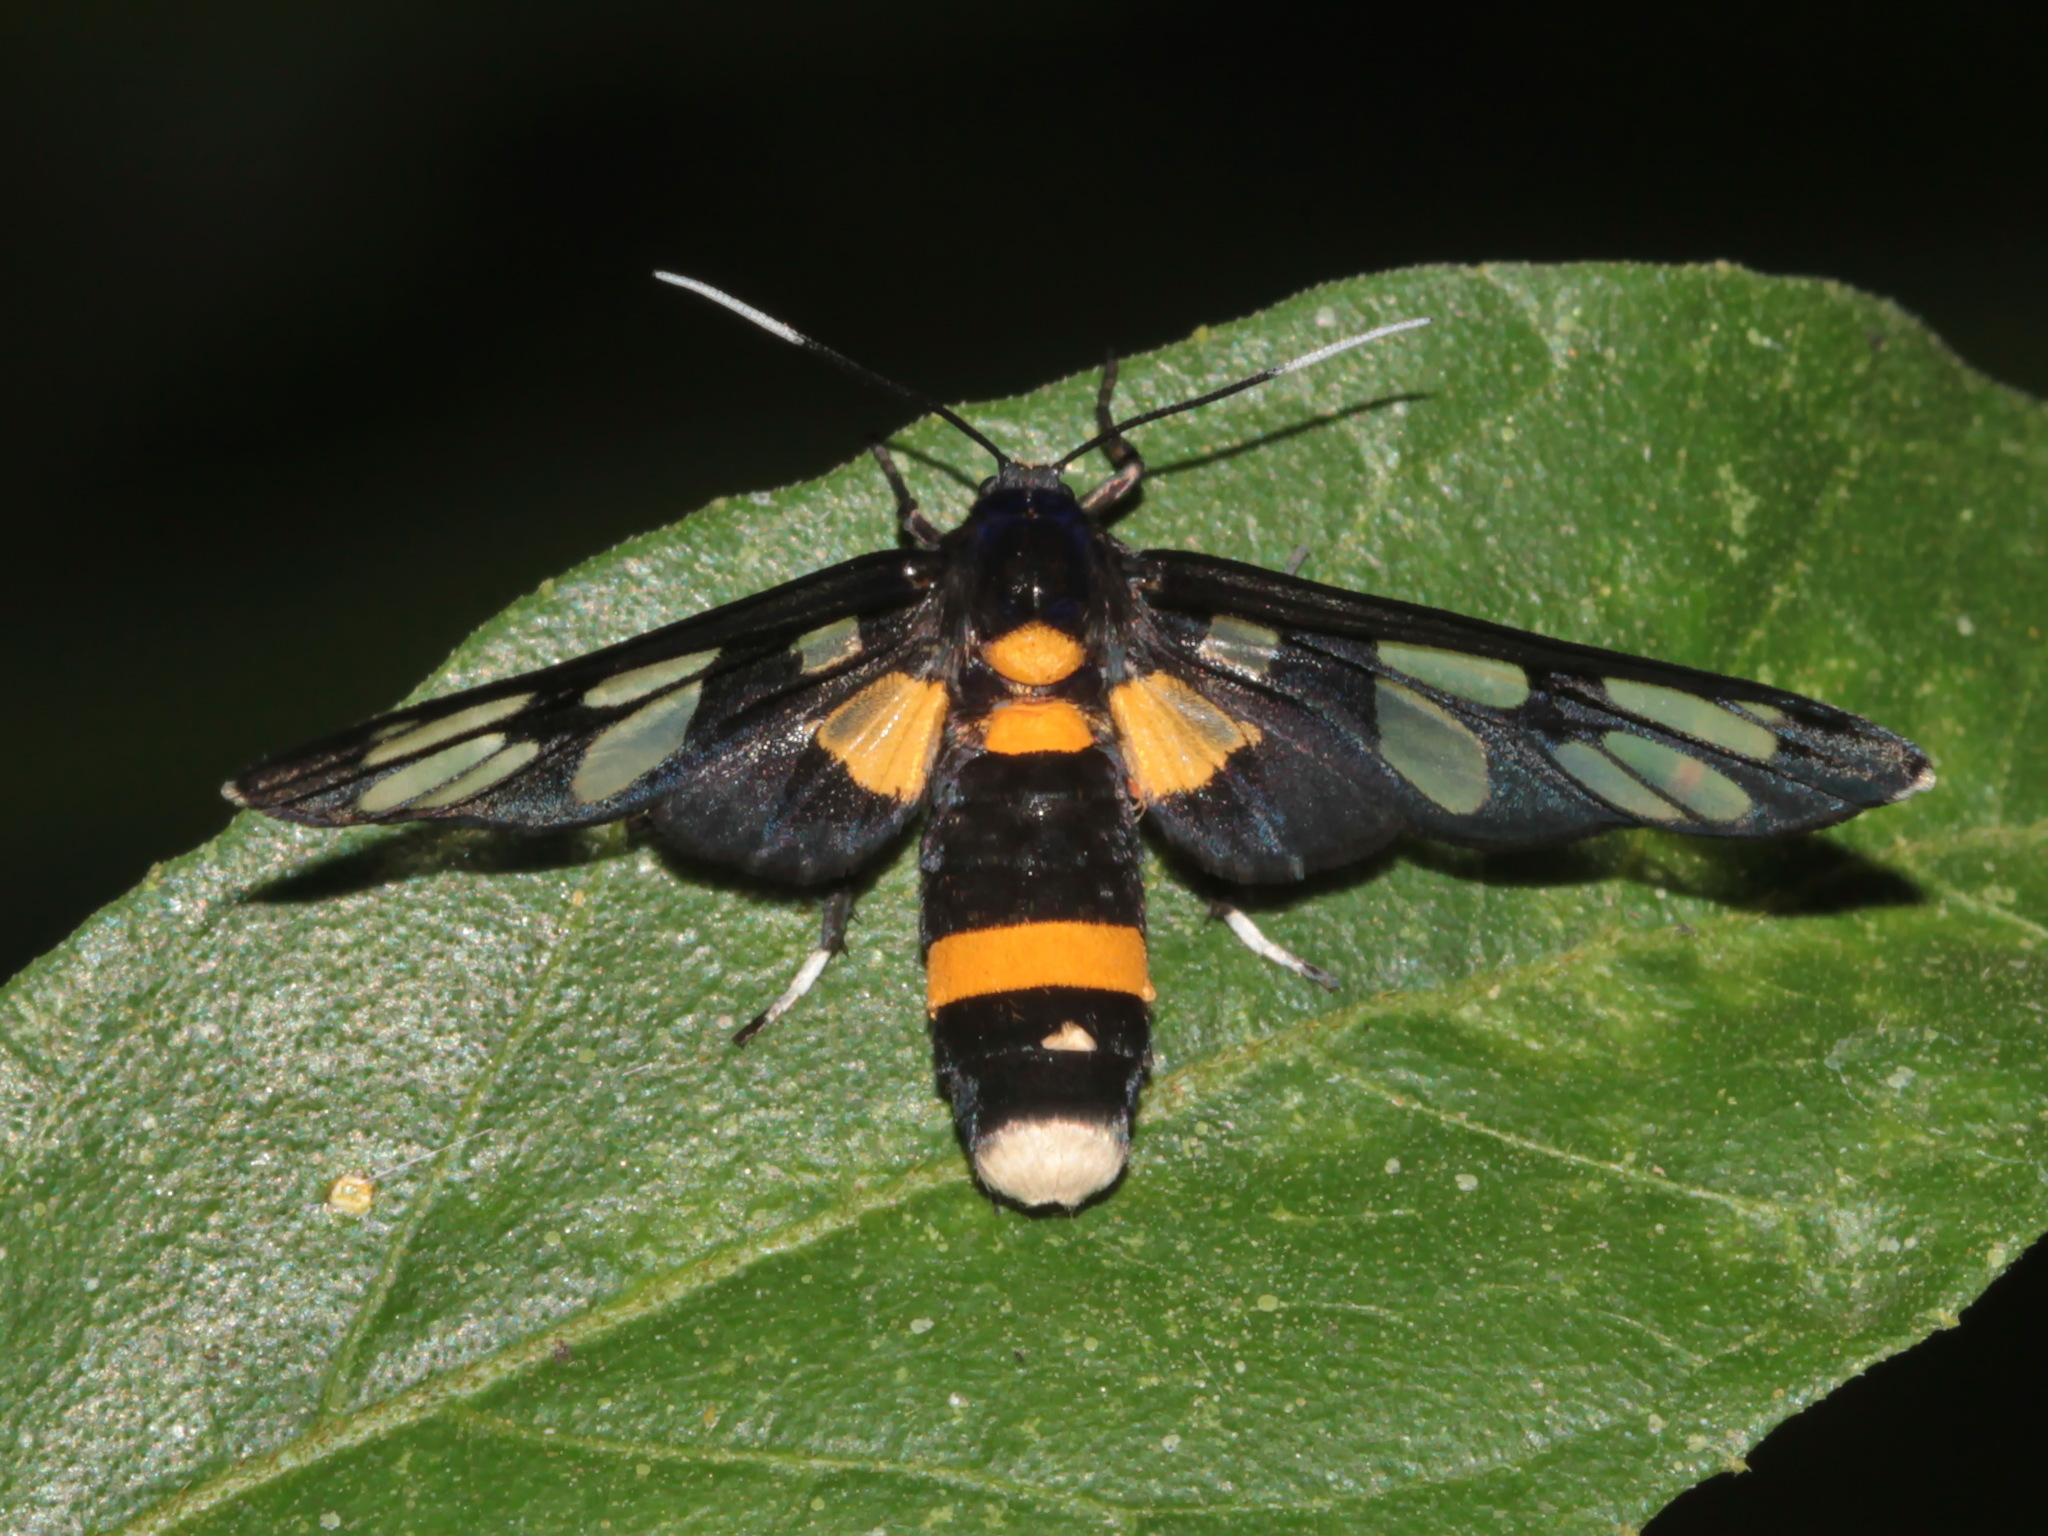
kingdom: Animalia
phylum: Arthropoda
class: Insecta
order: Lepidoptera
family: Erebidae
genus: Amata
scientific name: Amata sperbius
